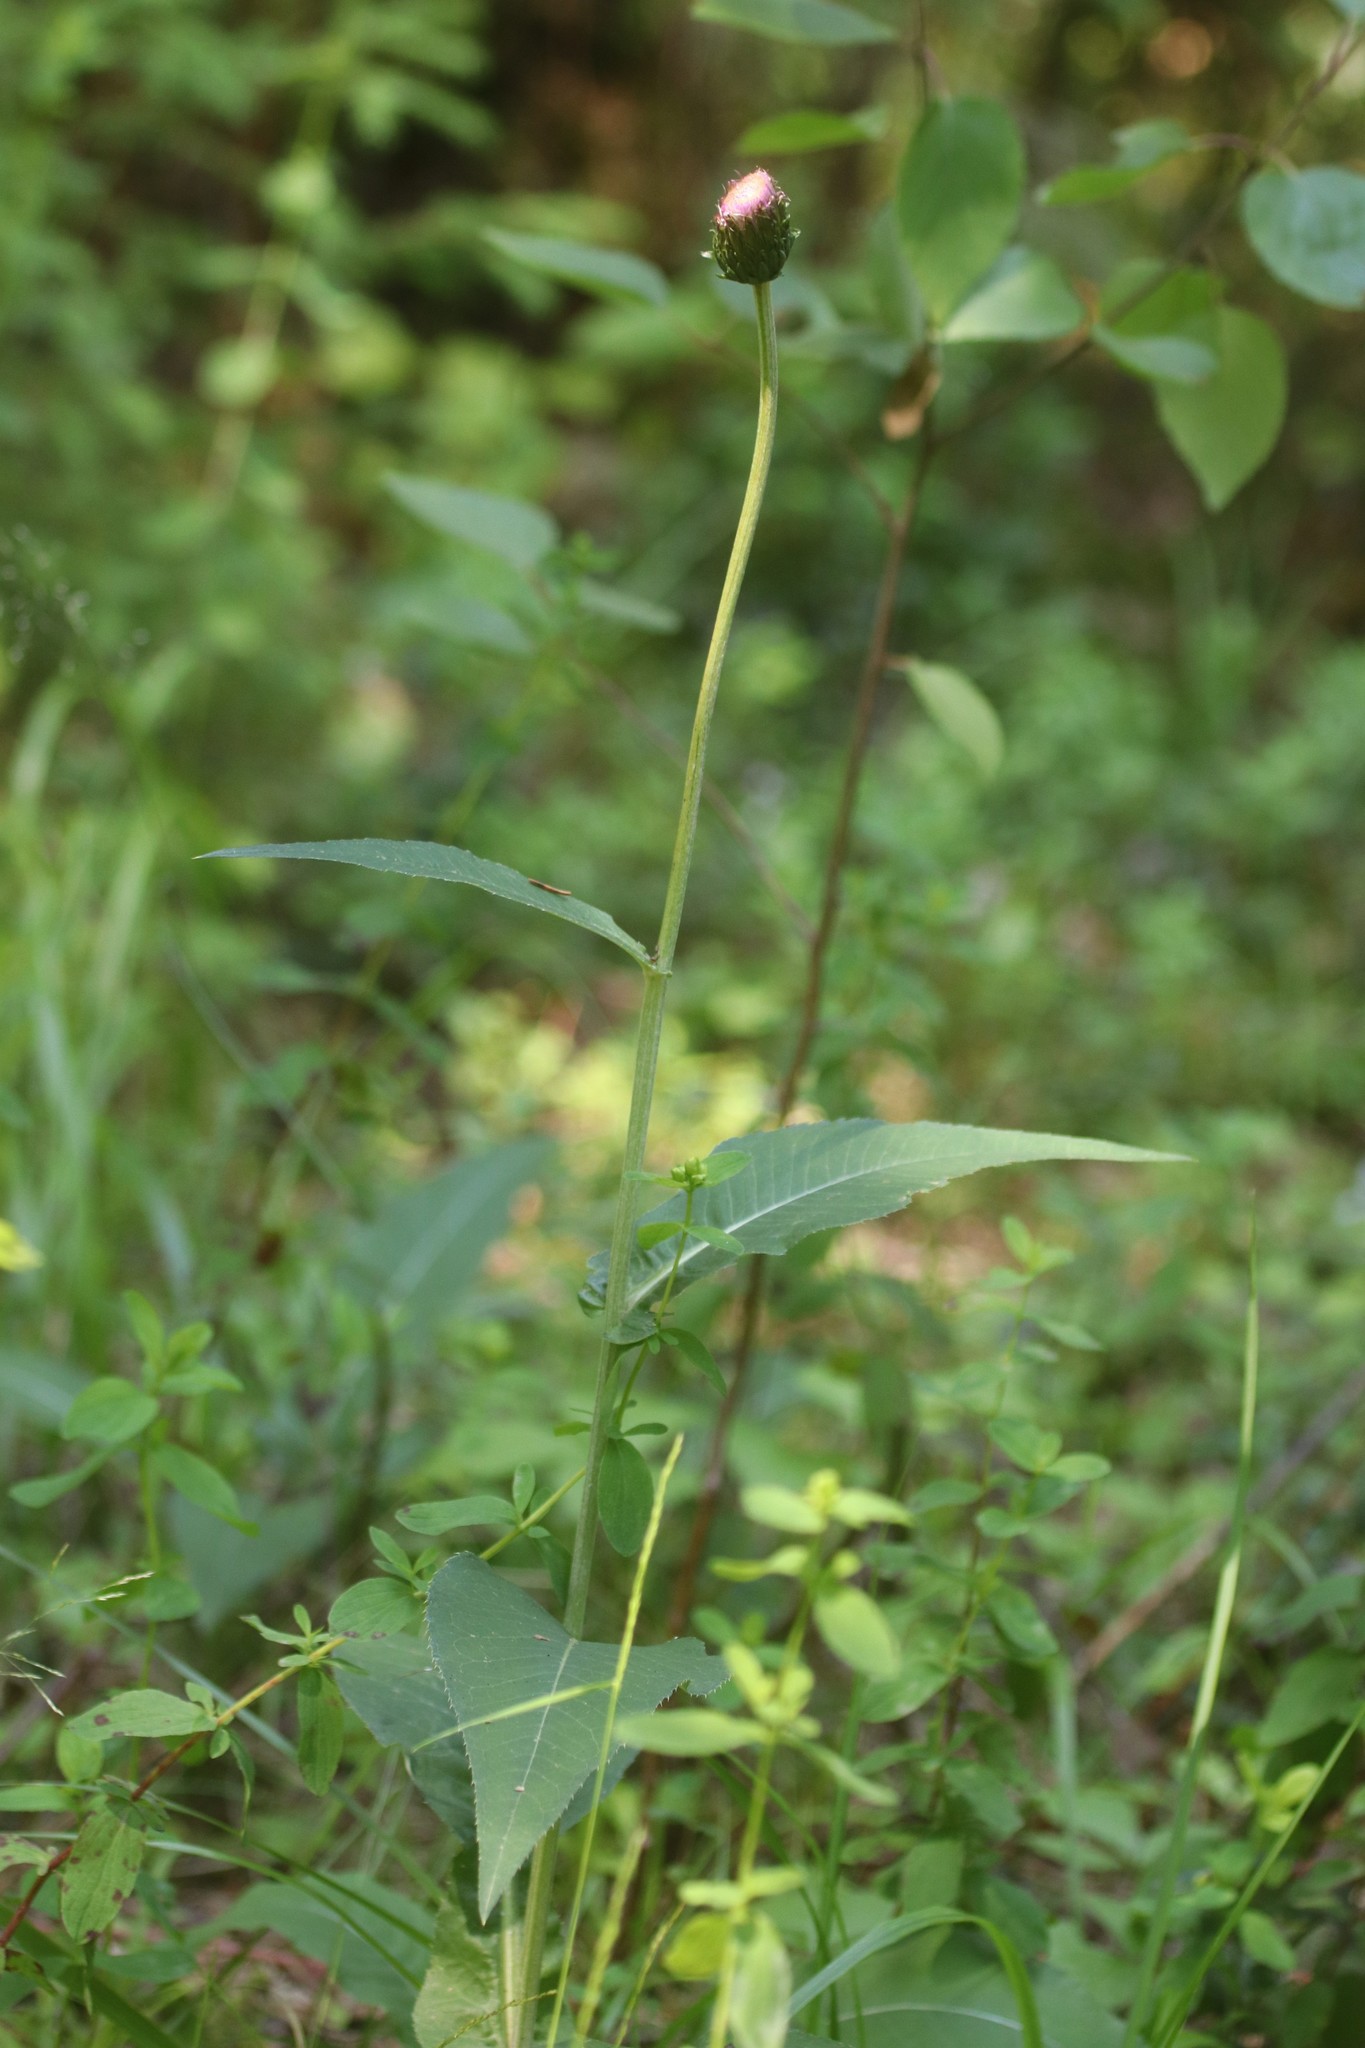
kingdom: Plantae
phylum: Tracheophyta
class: Magnoliopsida
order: Asterales
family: Asteraceae
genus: Cirsium
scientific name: Cirsium heterophyllum
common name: Melancholy thistle
